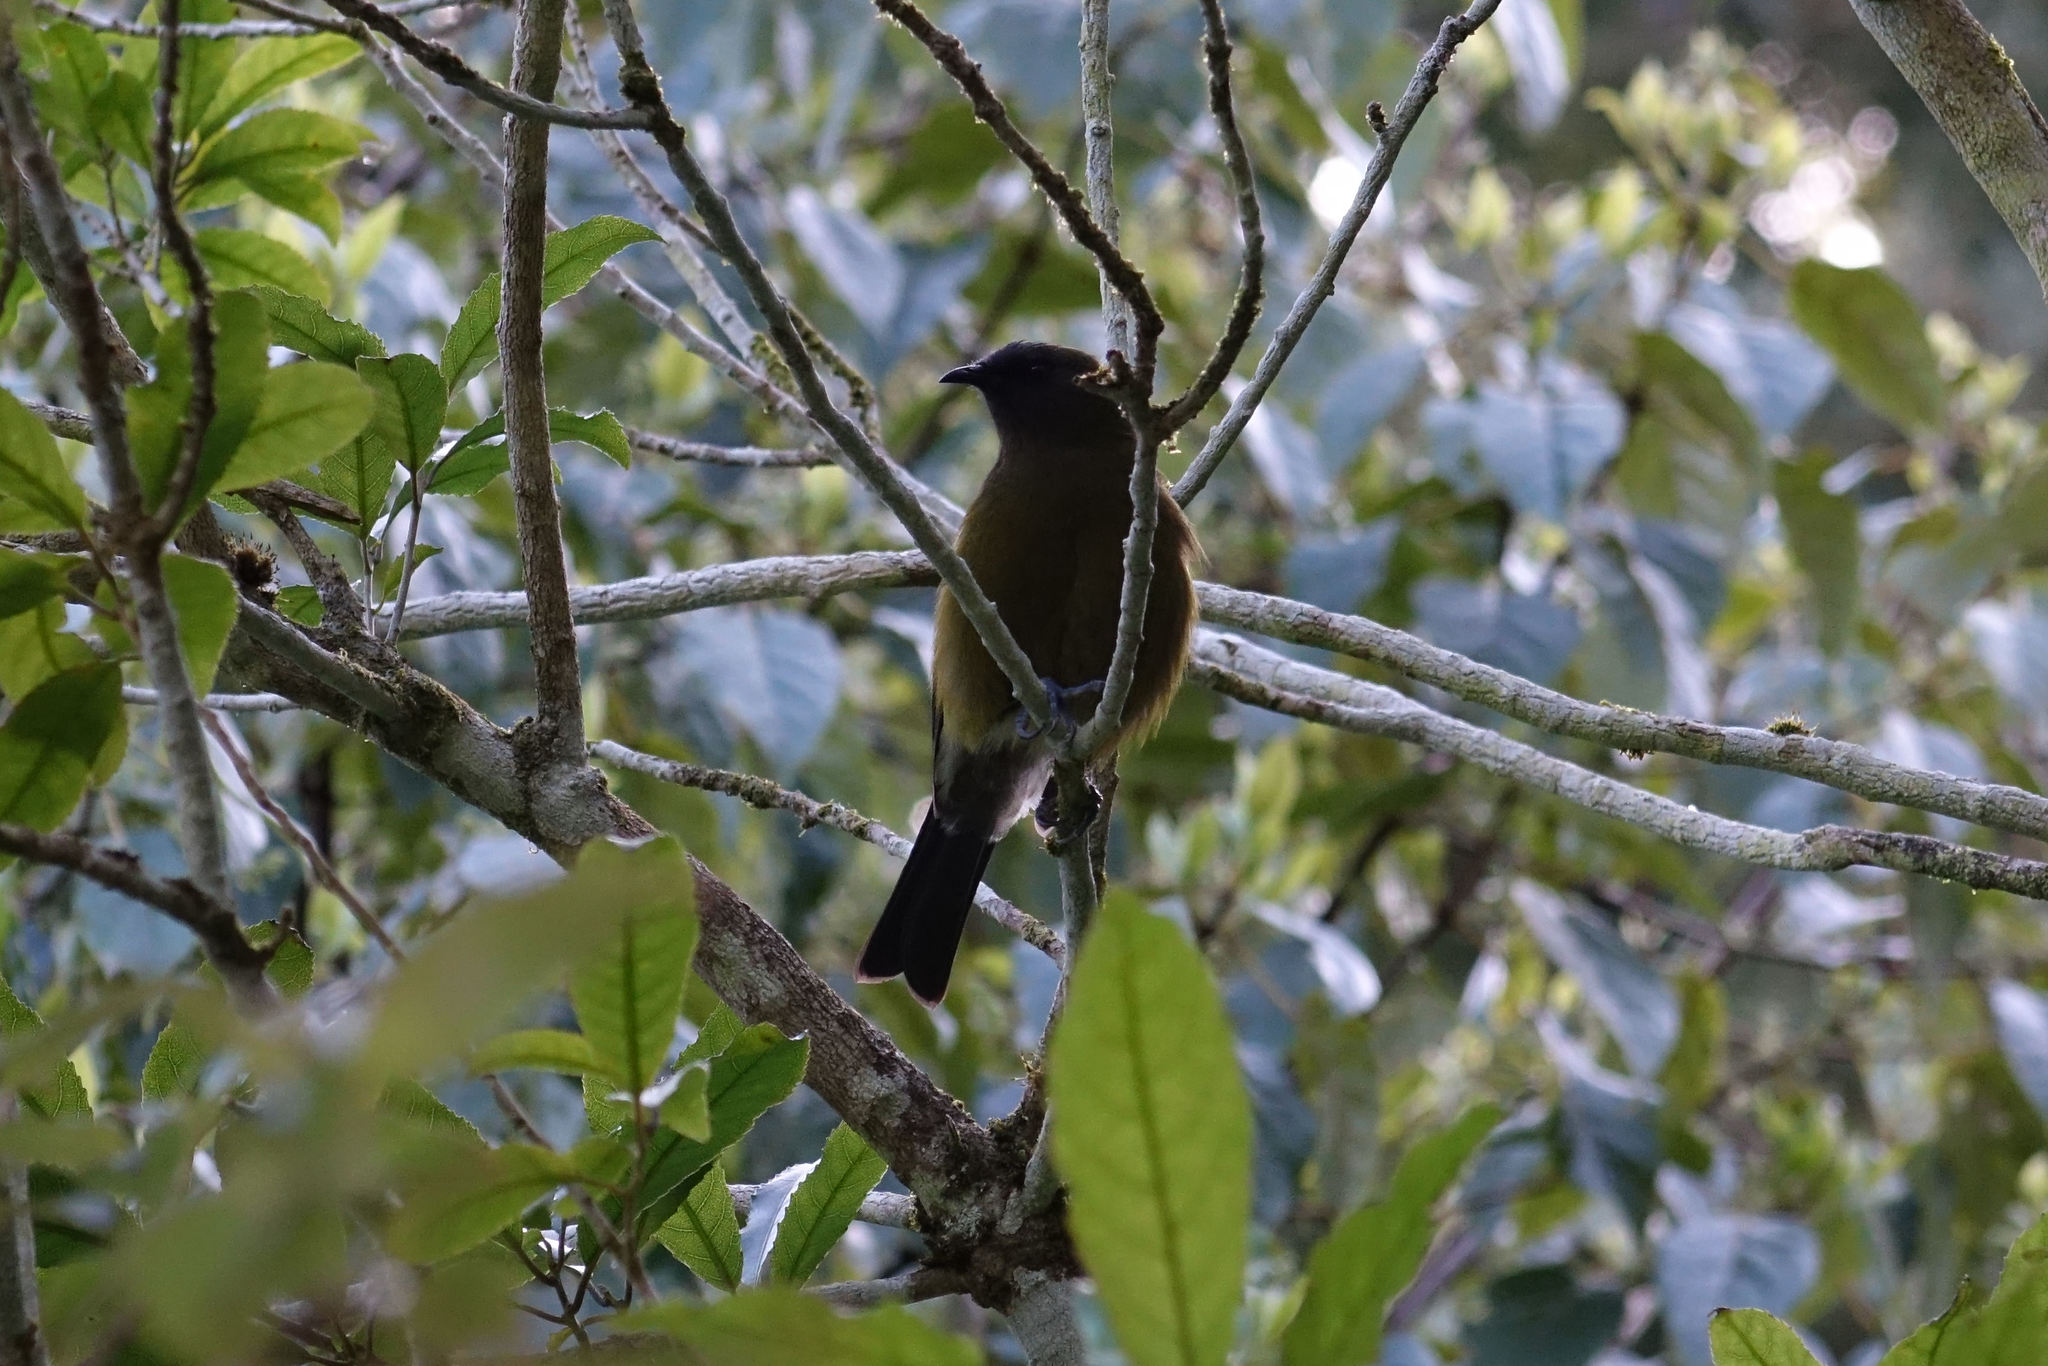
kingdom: Animalia
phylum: Chordata
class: Aves
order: Passeriformes
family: Meliphagidae
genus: Anthornis
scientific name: Anthornis melanura
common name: New zealand bellbird
